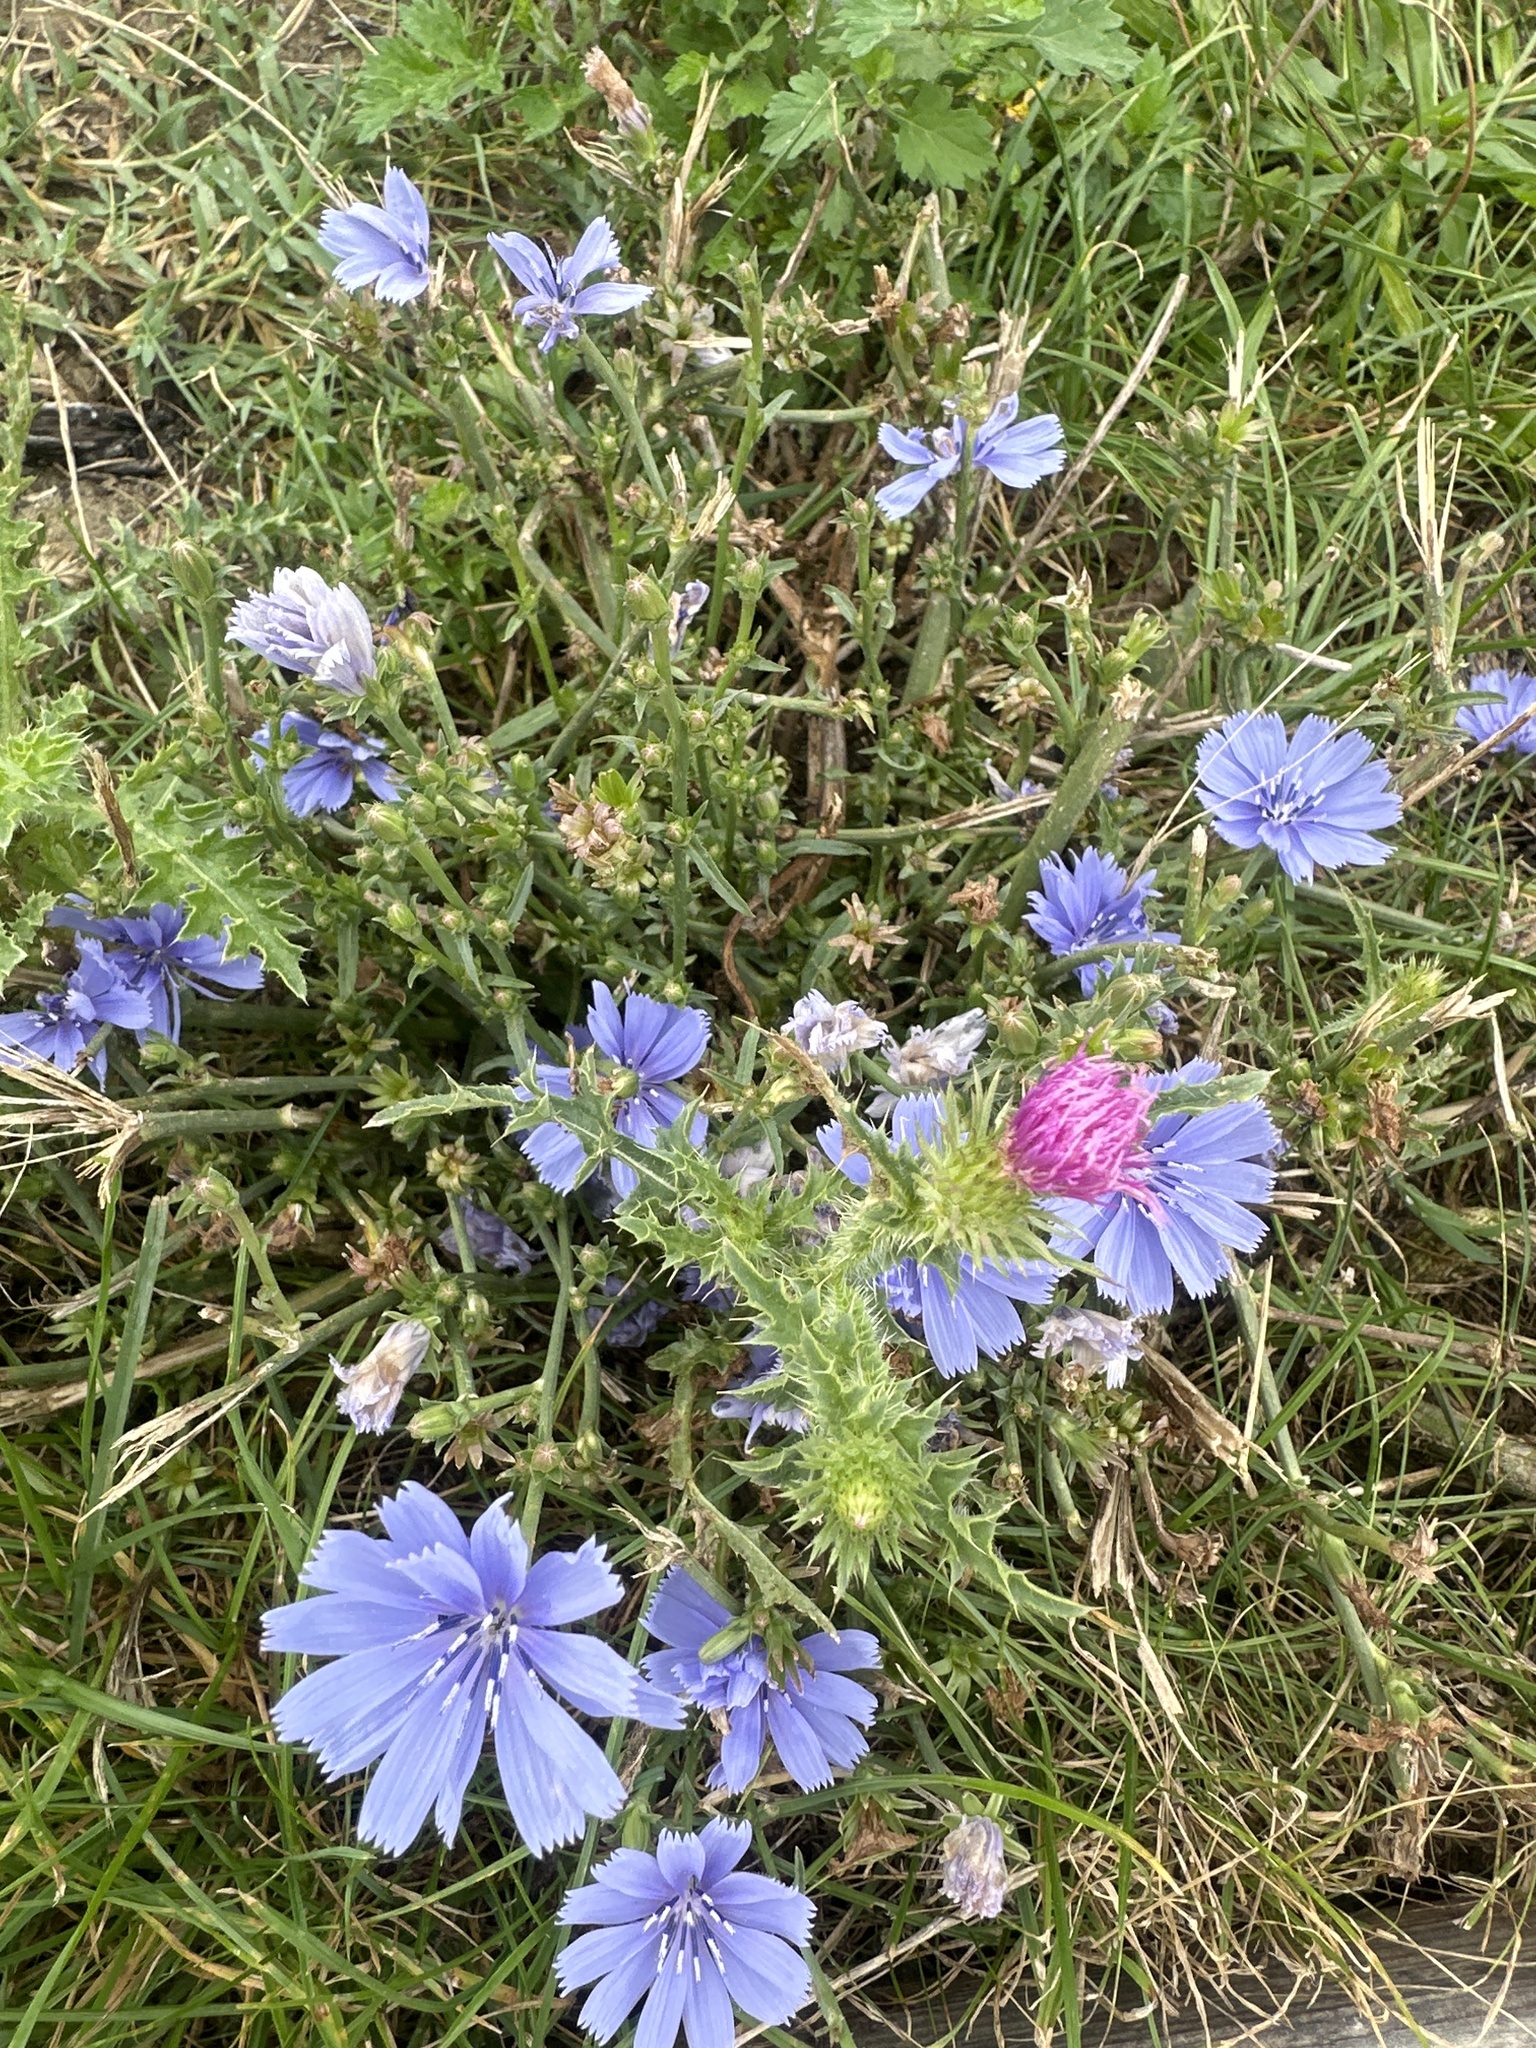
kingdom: Plantae
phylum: Tracheophyta
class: Magnoliopsida
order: Asterales
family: Asteraceae
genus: Cichorium
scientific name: Cichorium intybus
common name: Chicory
